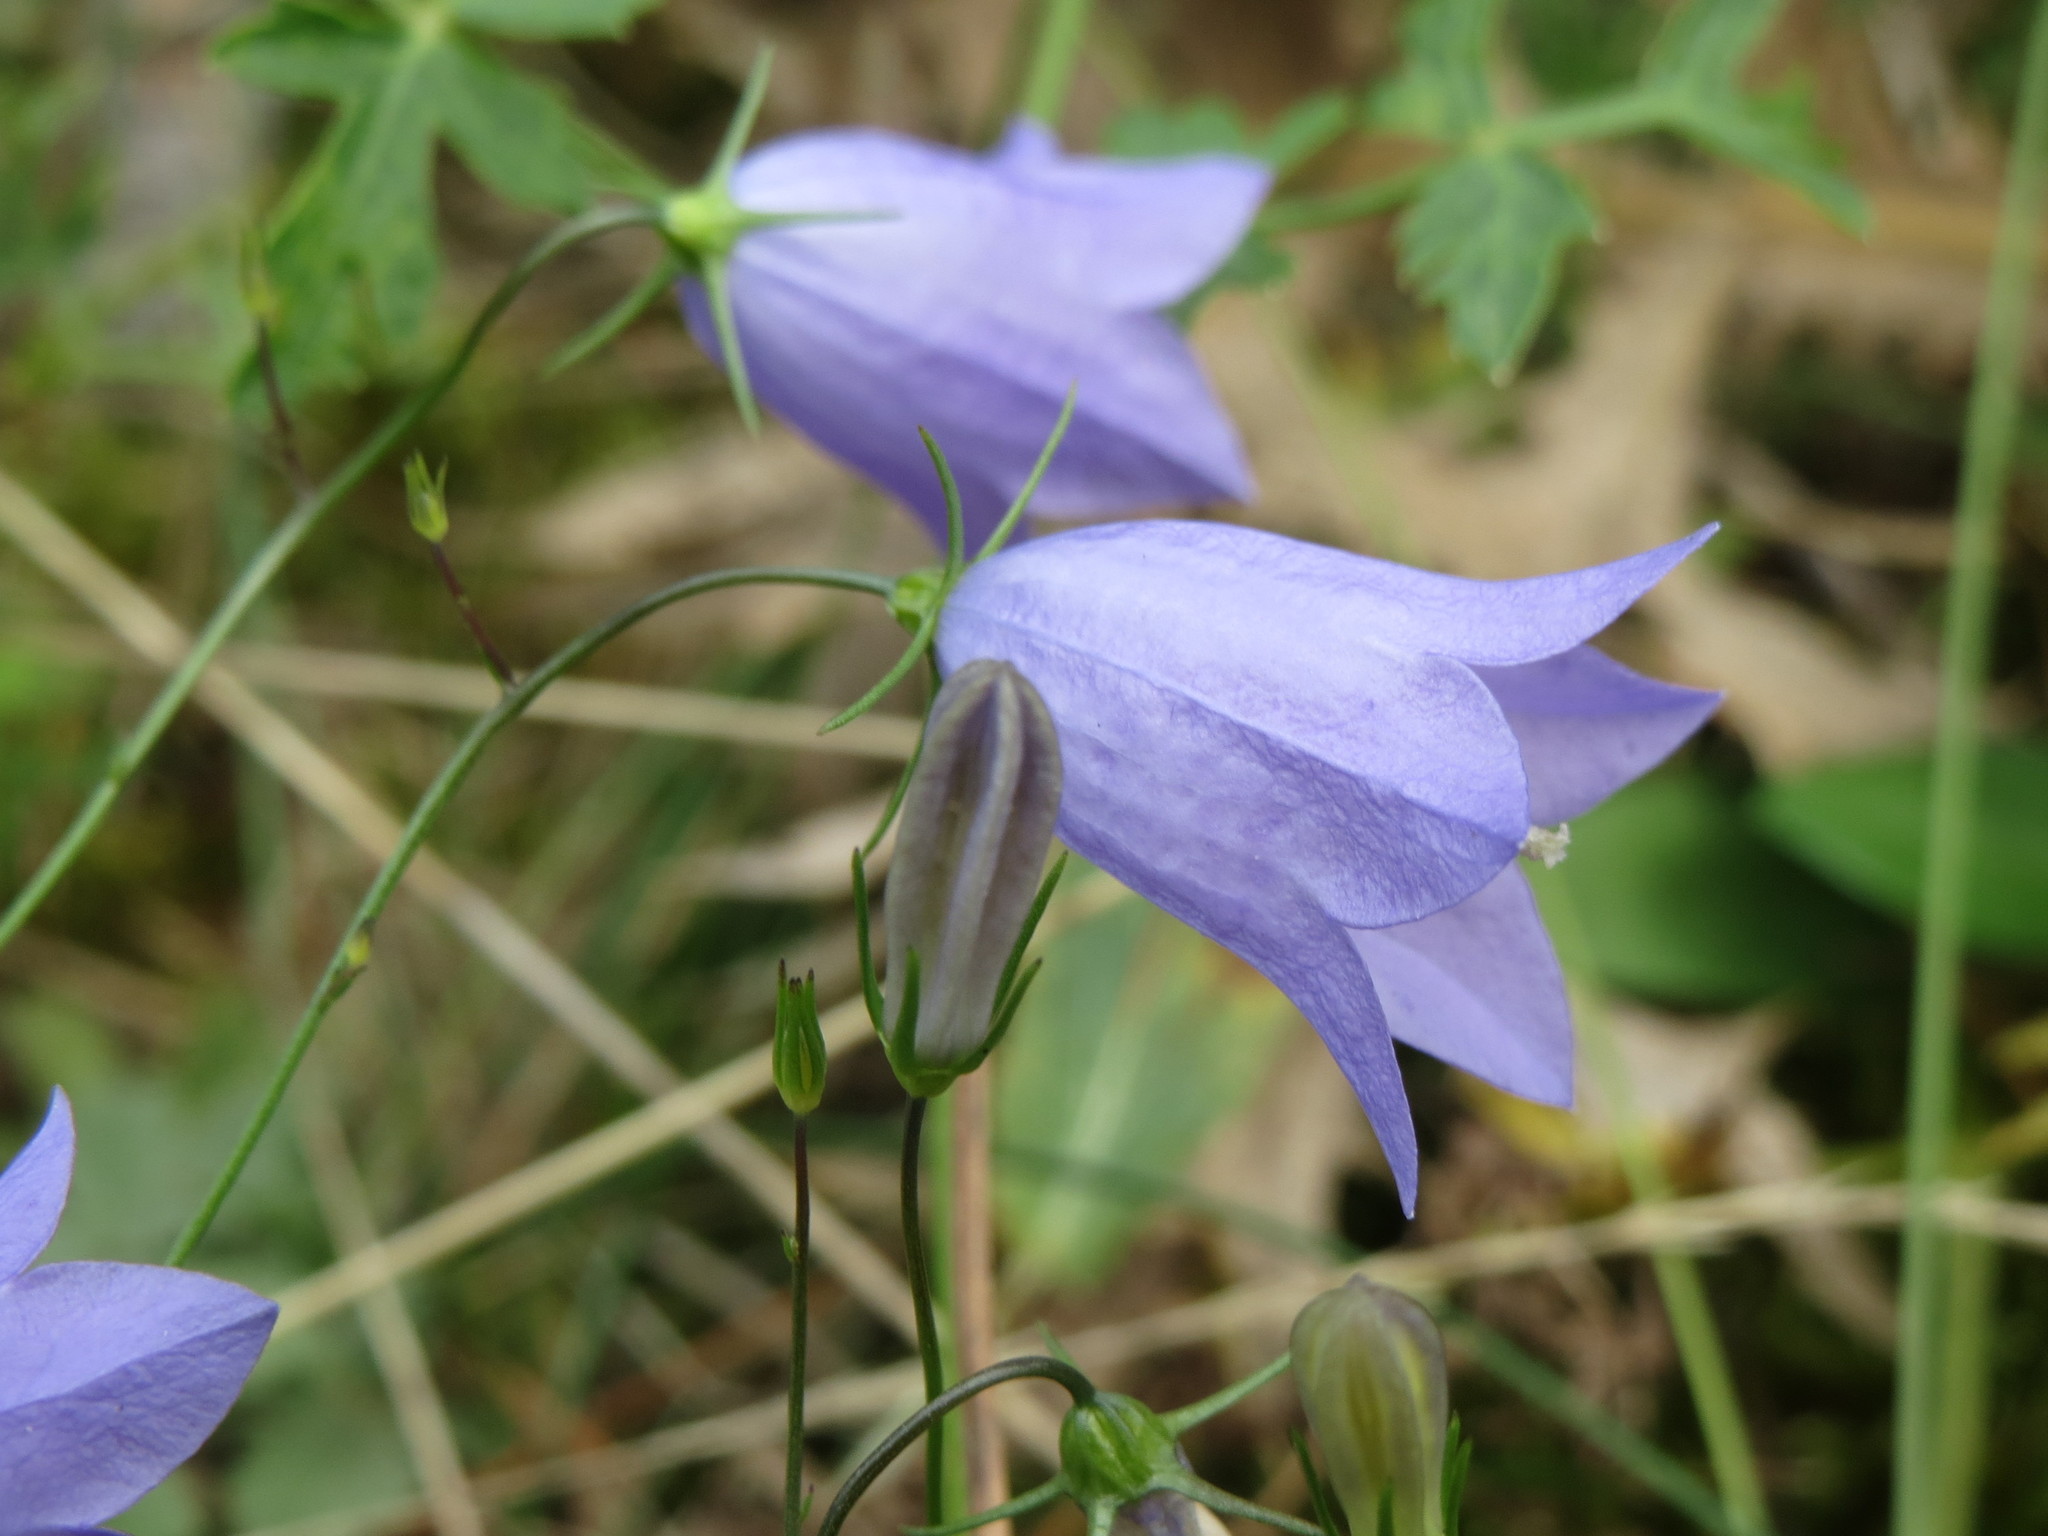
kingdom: Plantae
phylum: Tracheophyta
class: Magnoliopsida
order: Asterales
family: Campanulaceae
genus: Campanula
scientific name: Campanula rotundifolia
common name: Harebell
